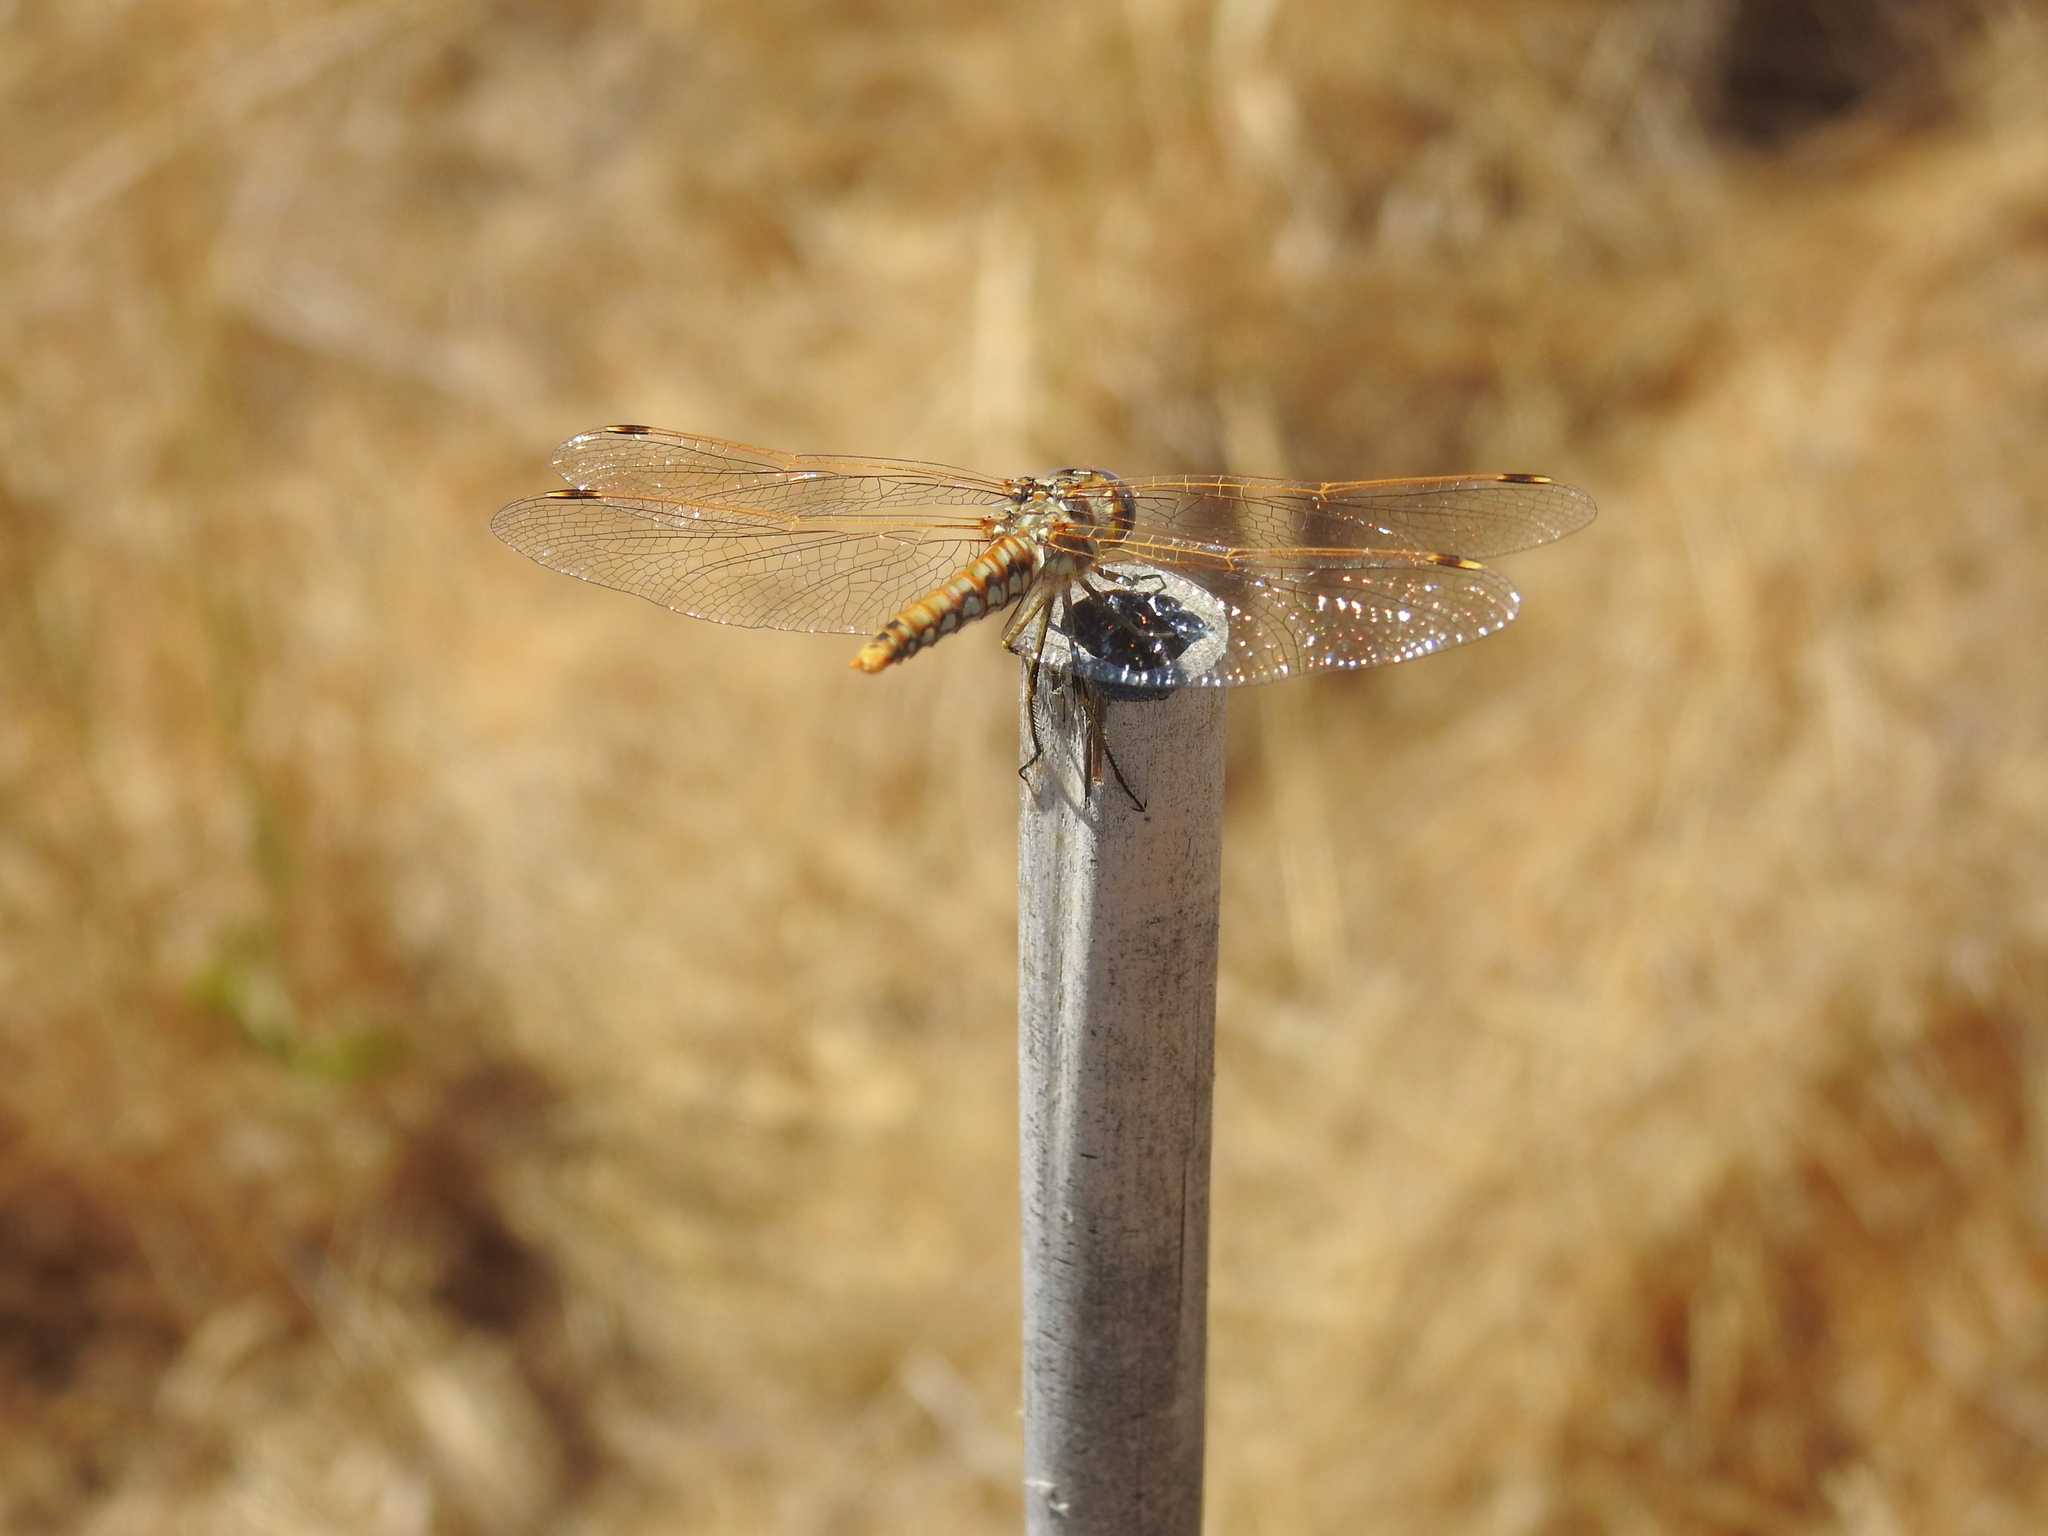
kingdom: Animalia
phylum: Arthropoda
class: Insecta
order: Odonata
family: Libellulidae
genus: Sympetrum
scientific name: Sympetrum corruptum
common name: Variegated meadowhawk
